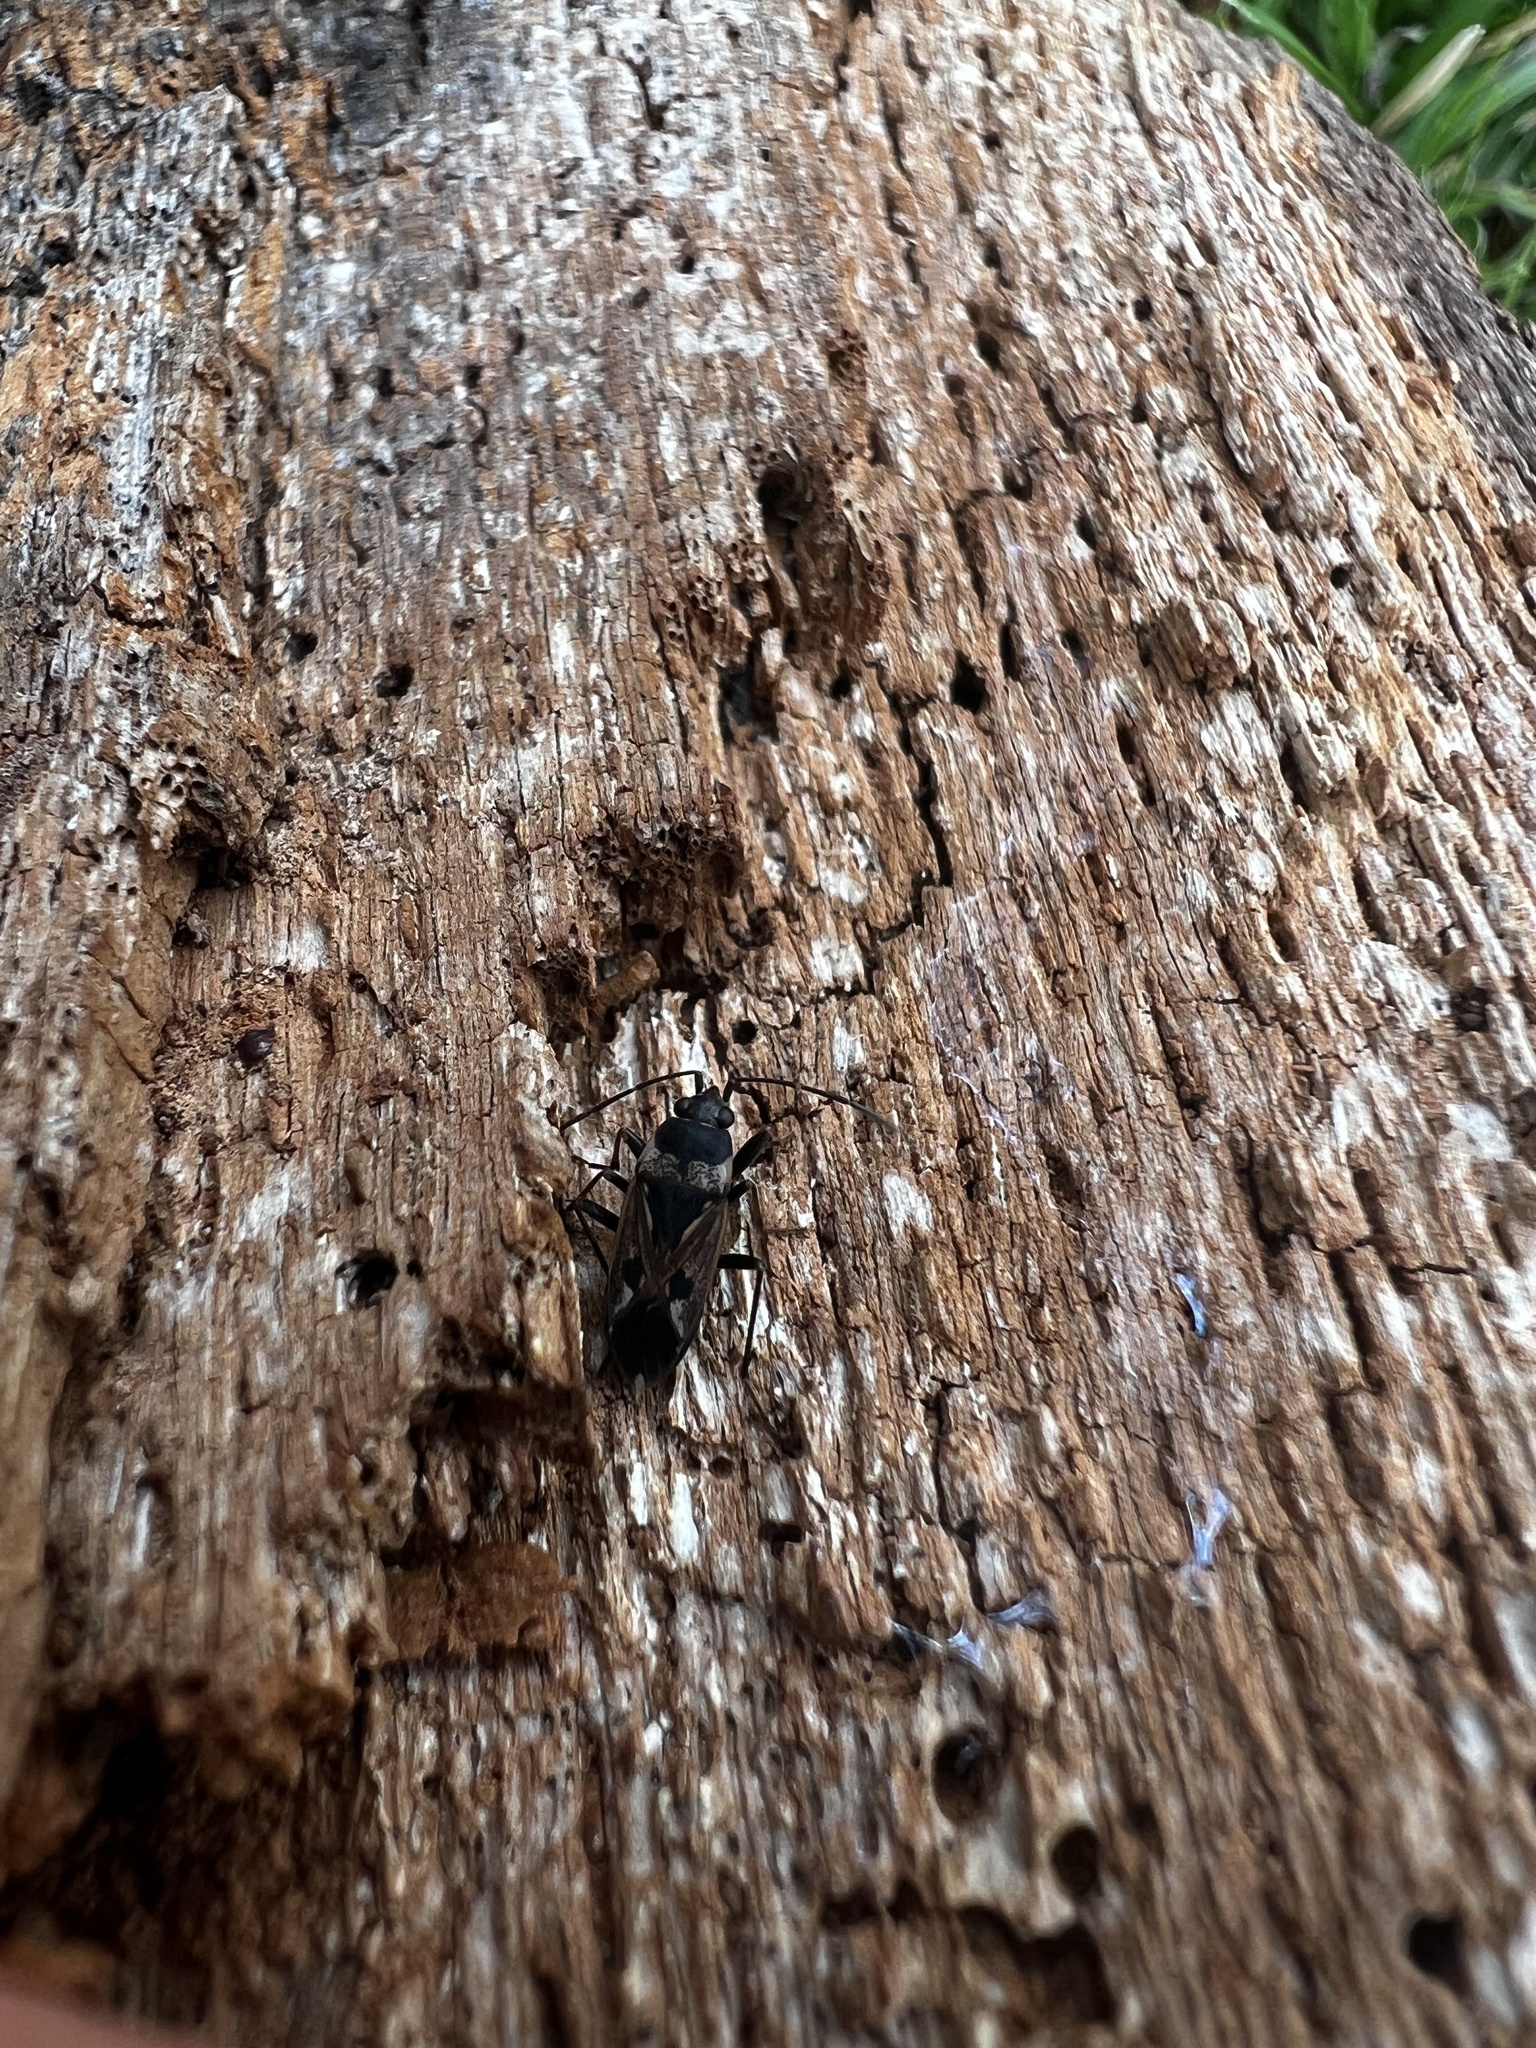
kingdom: Animalia
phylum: Arthropoda
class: Insecta
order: Hemiptera
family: Rhyparochromidae
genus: Rhyparochromus
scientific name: Rhyparochromus vulgaris
